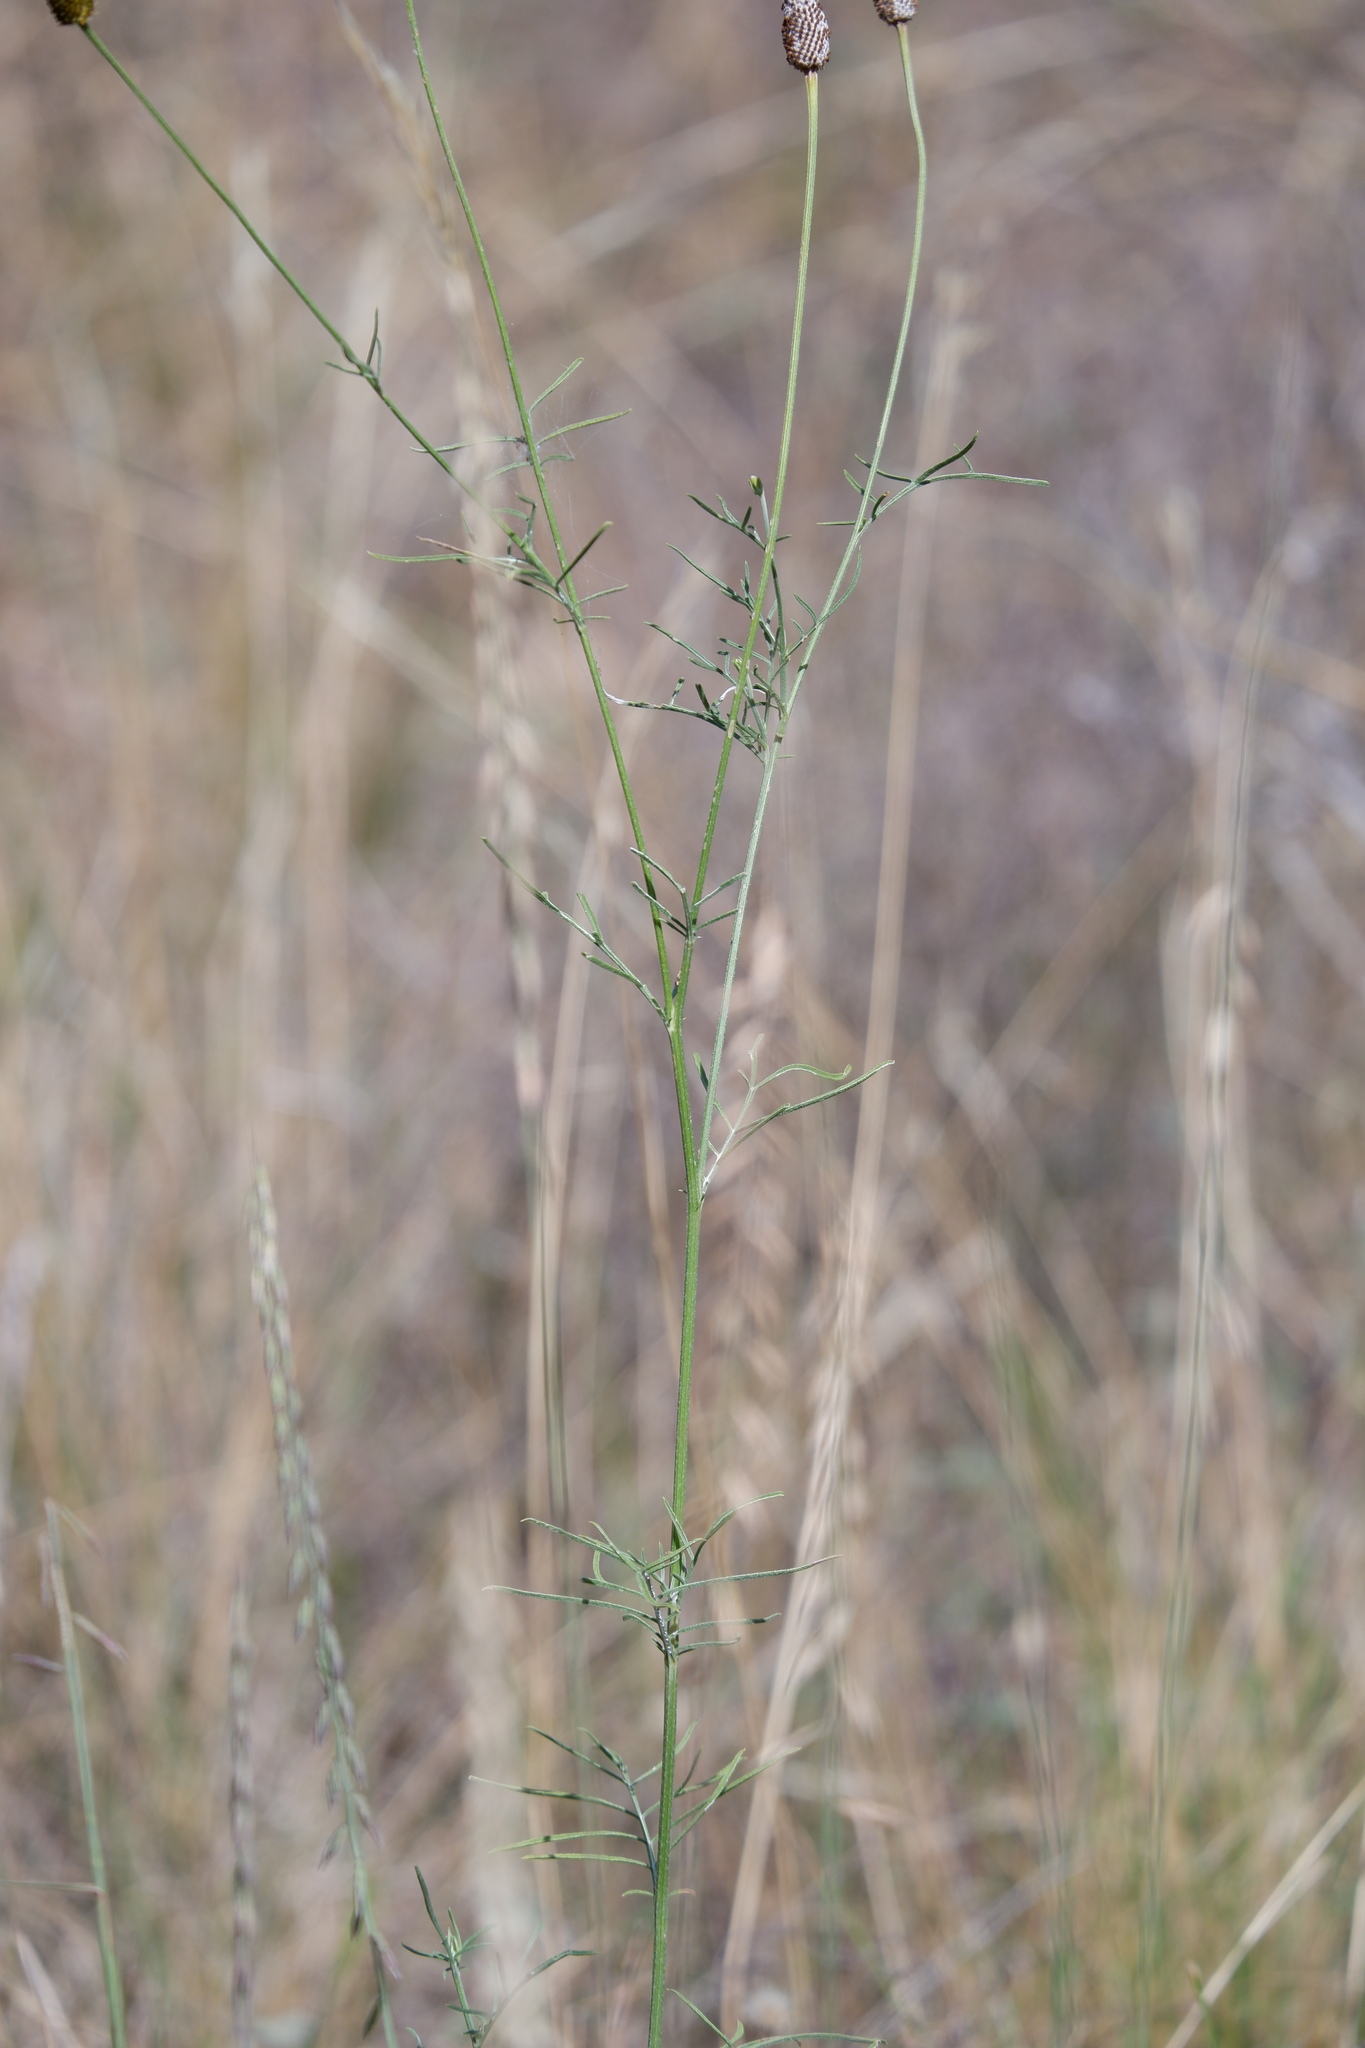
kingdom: Plantae
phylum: Tracheophyta
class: Magnoliopsida
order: Asterales
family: Asteraceae
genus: Ratibida
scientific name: Ratibida columnifera
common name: Prairie coneflower
